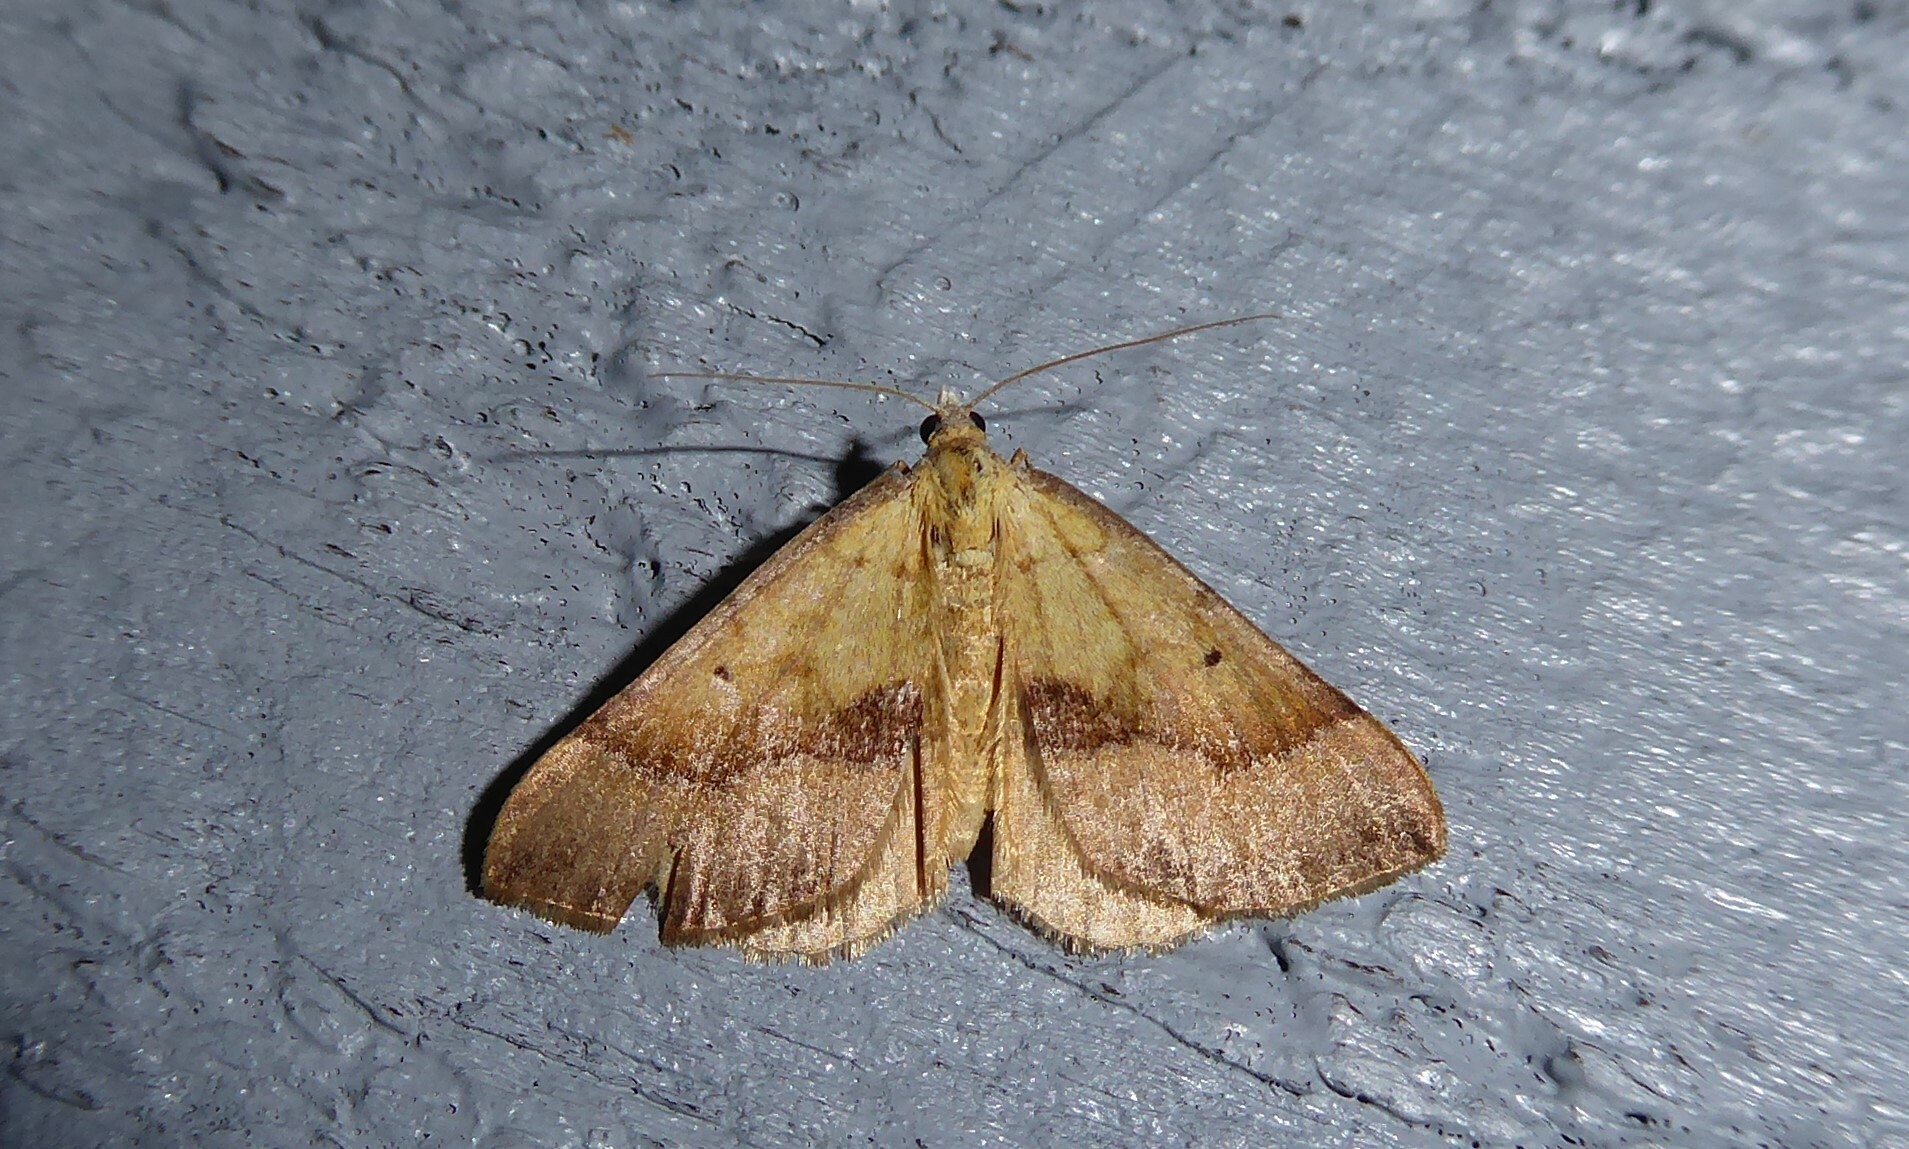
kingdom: Animalia
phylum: Arthropoda
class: Insecta
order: Lepidoptera
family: Geometridae
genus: Anachloris
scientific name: Anachloris subochraria
